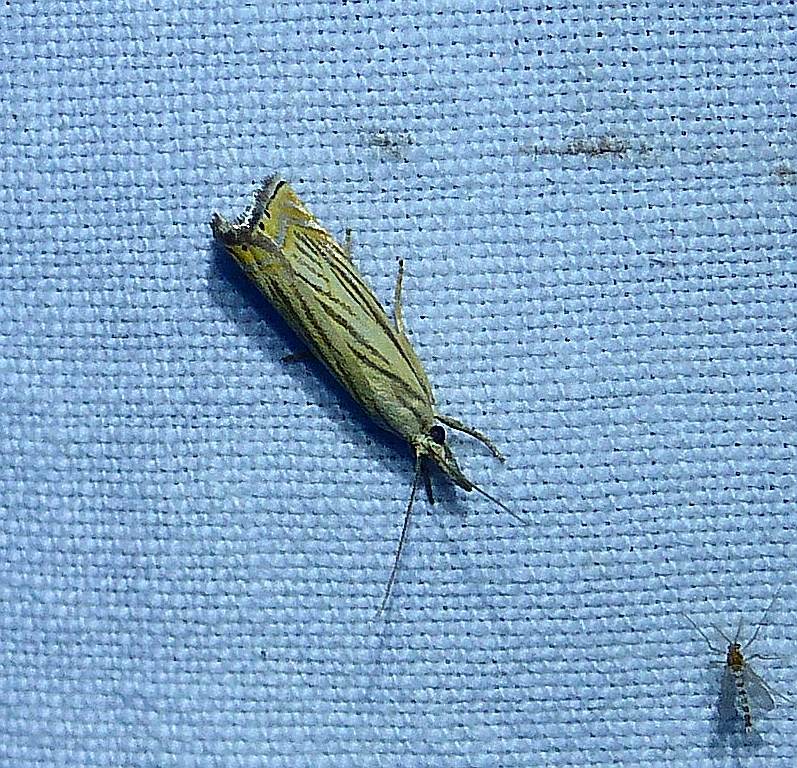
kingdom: Animalia
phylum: Arthropoda
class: Insecta
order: Lepidoptera
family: Crambidae
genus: Chrysoteuchia
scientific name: Chrysoteuchia topiarius
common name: Topiary grass-veneer
